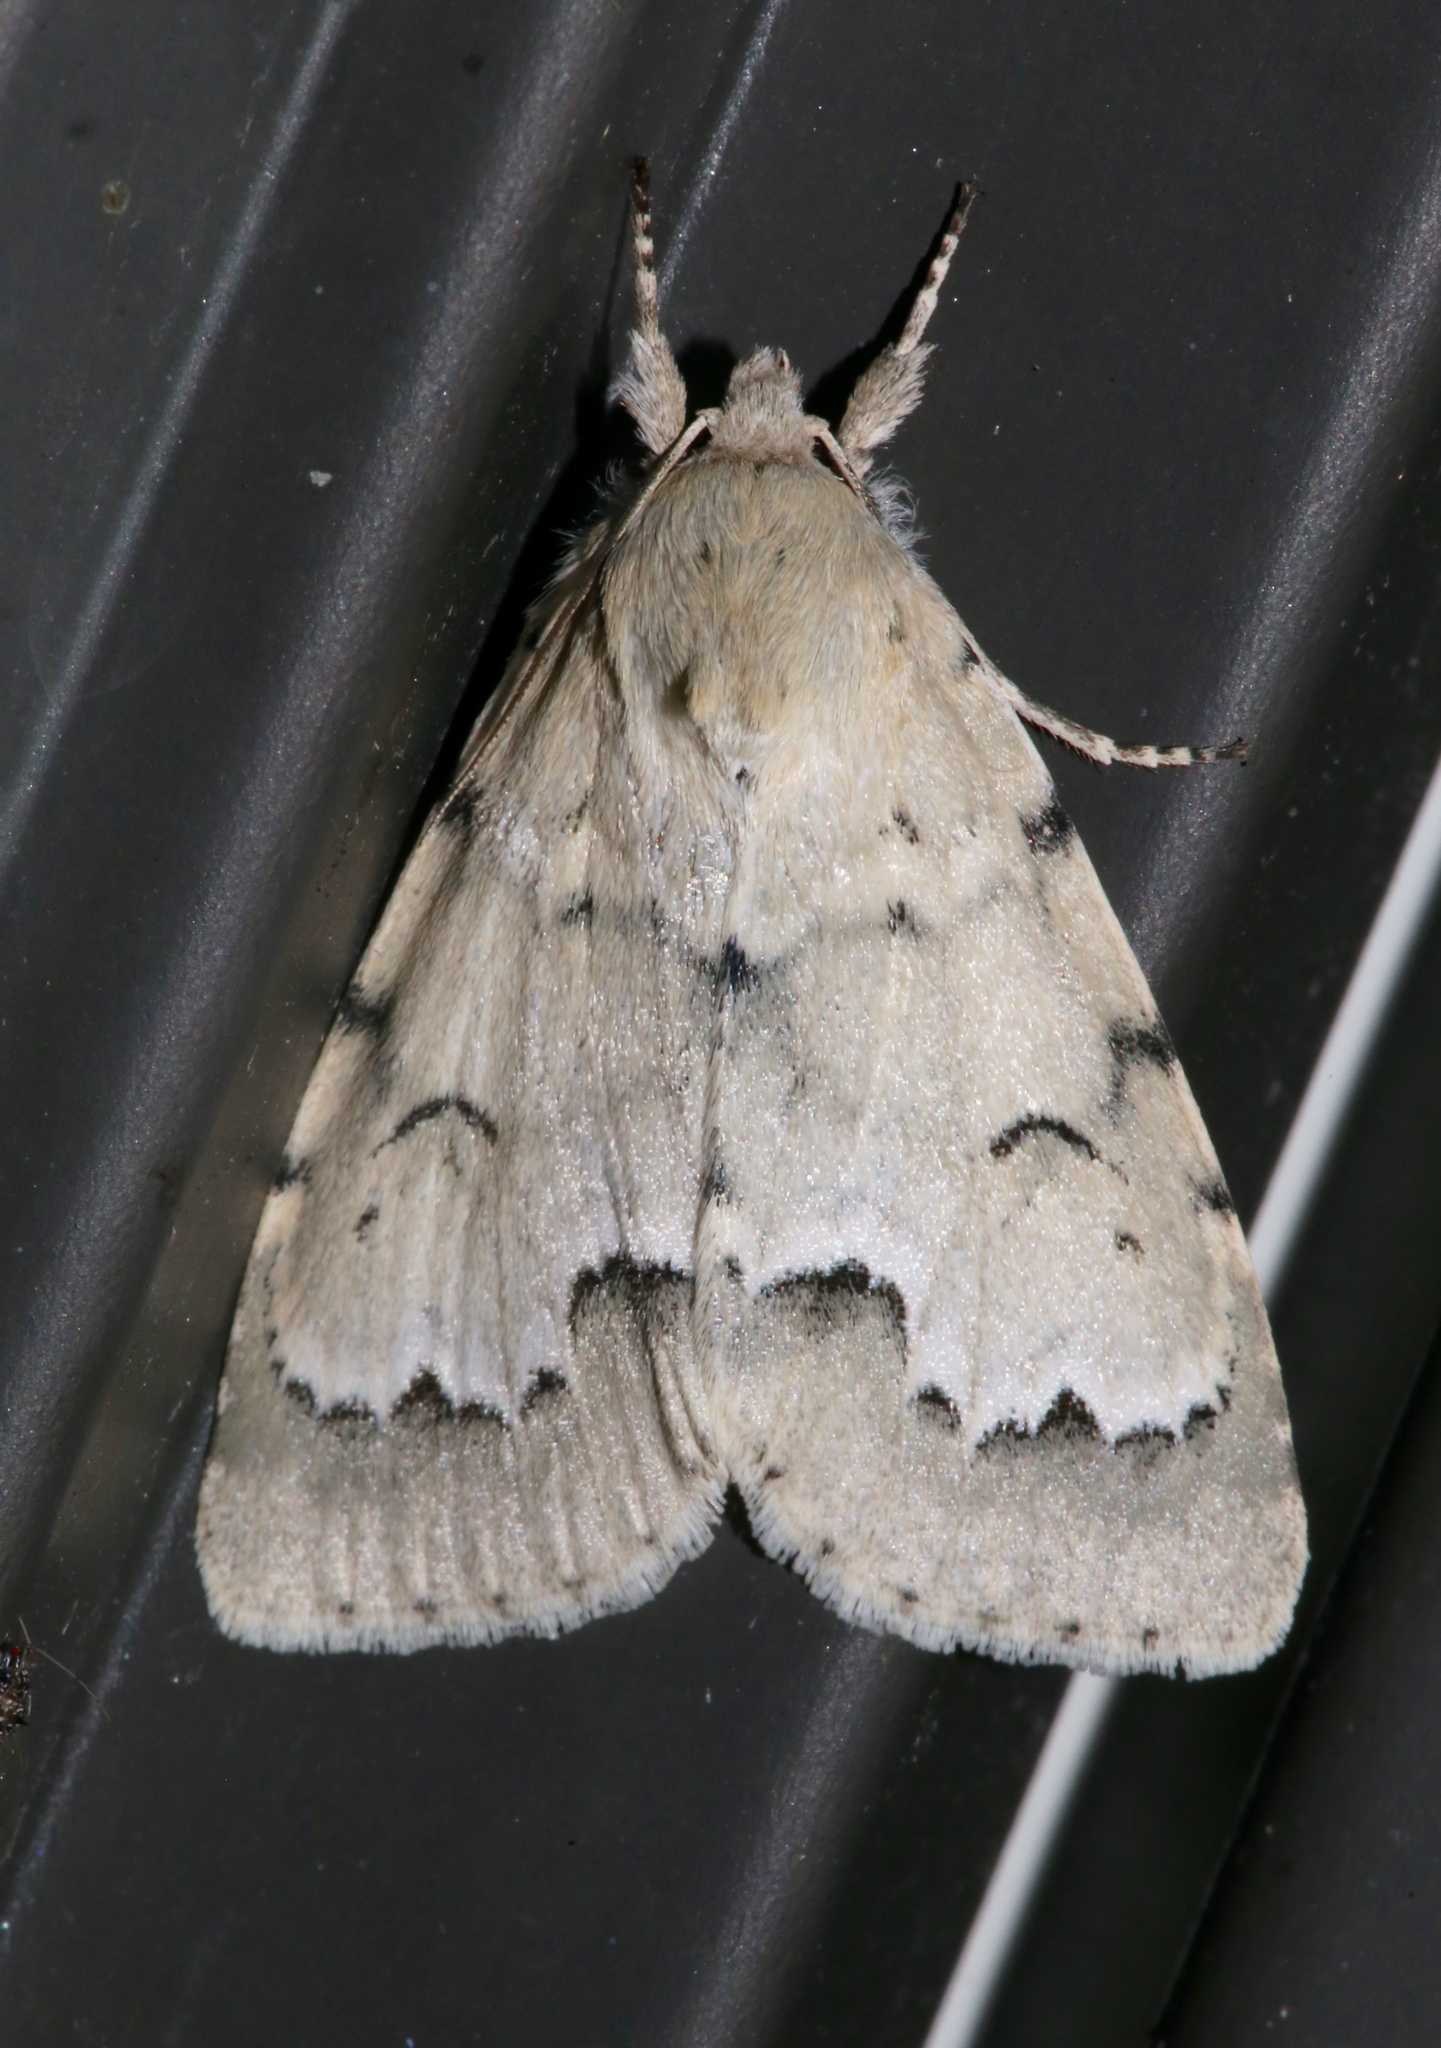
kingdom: Animalia
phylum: Arthropoda
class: Insecta
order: Lepidoptera
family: Noctuidae
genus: Acronicta
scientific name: Acronicta innotata
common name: Unmarked dagger
